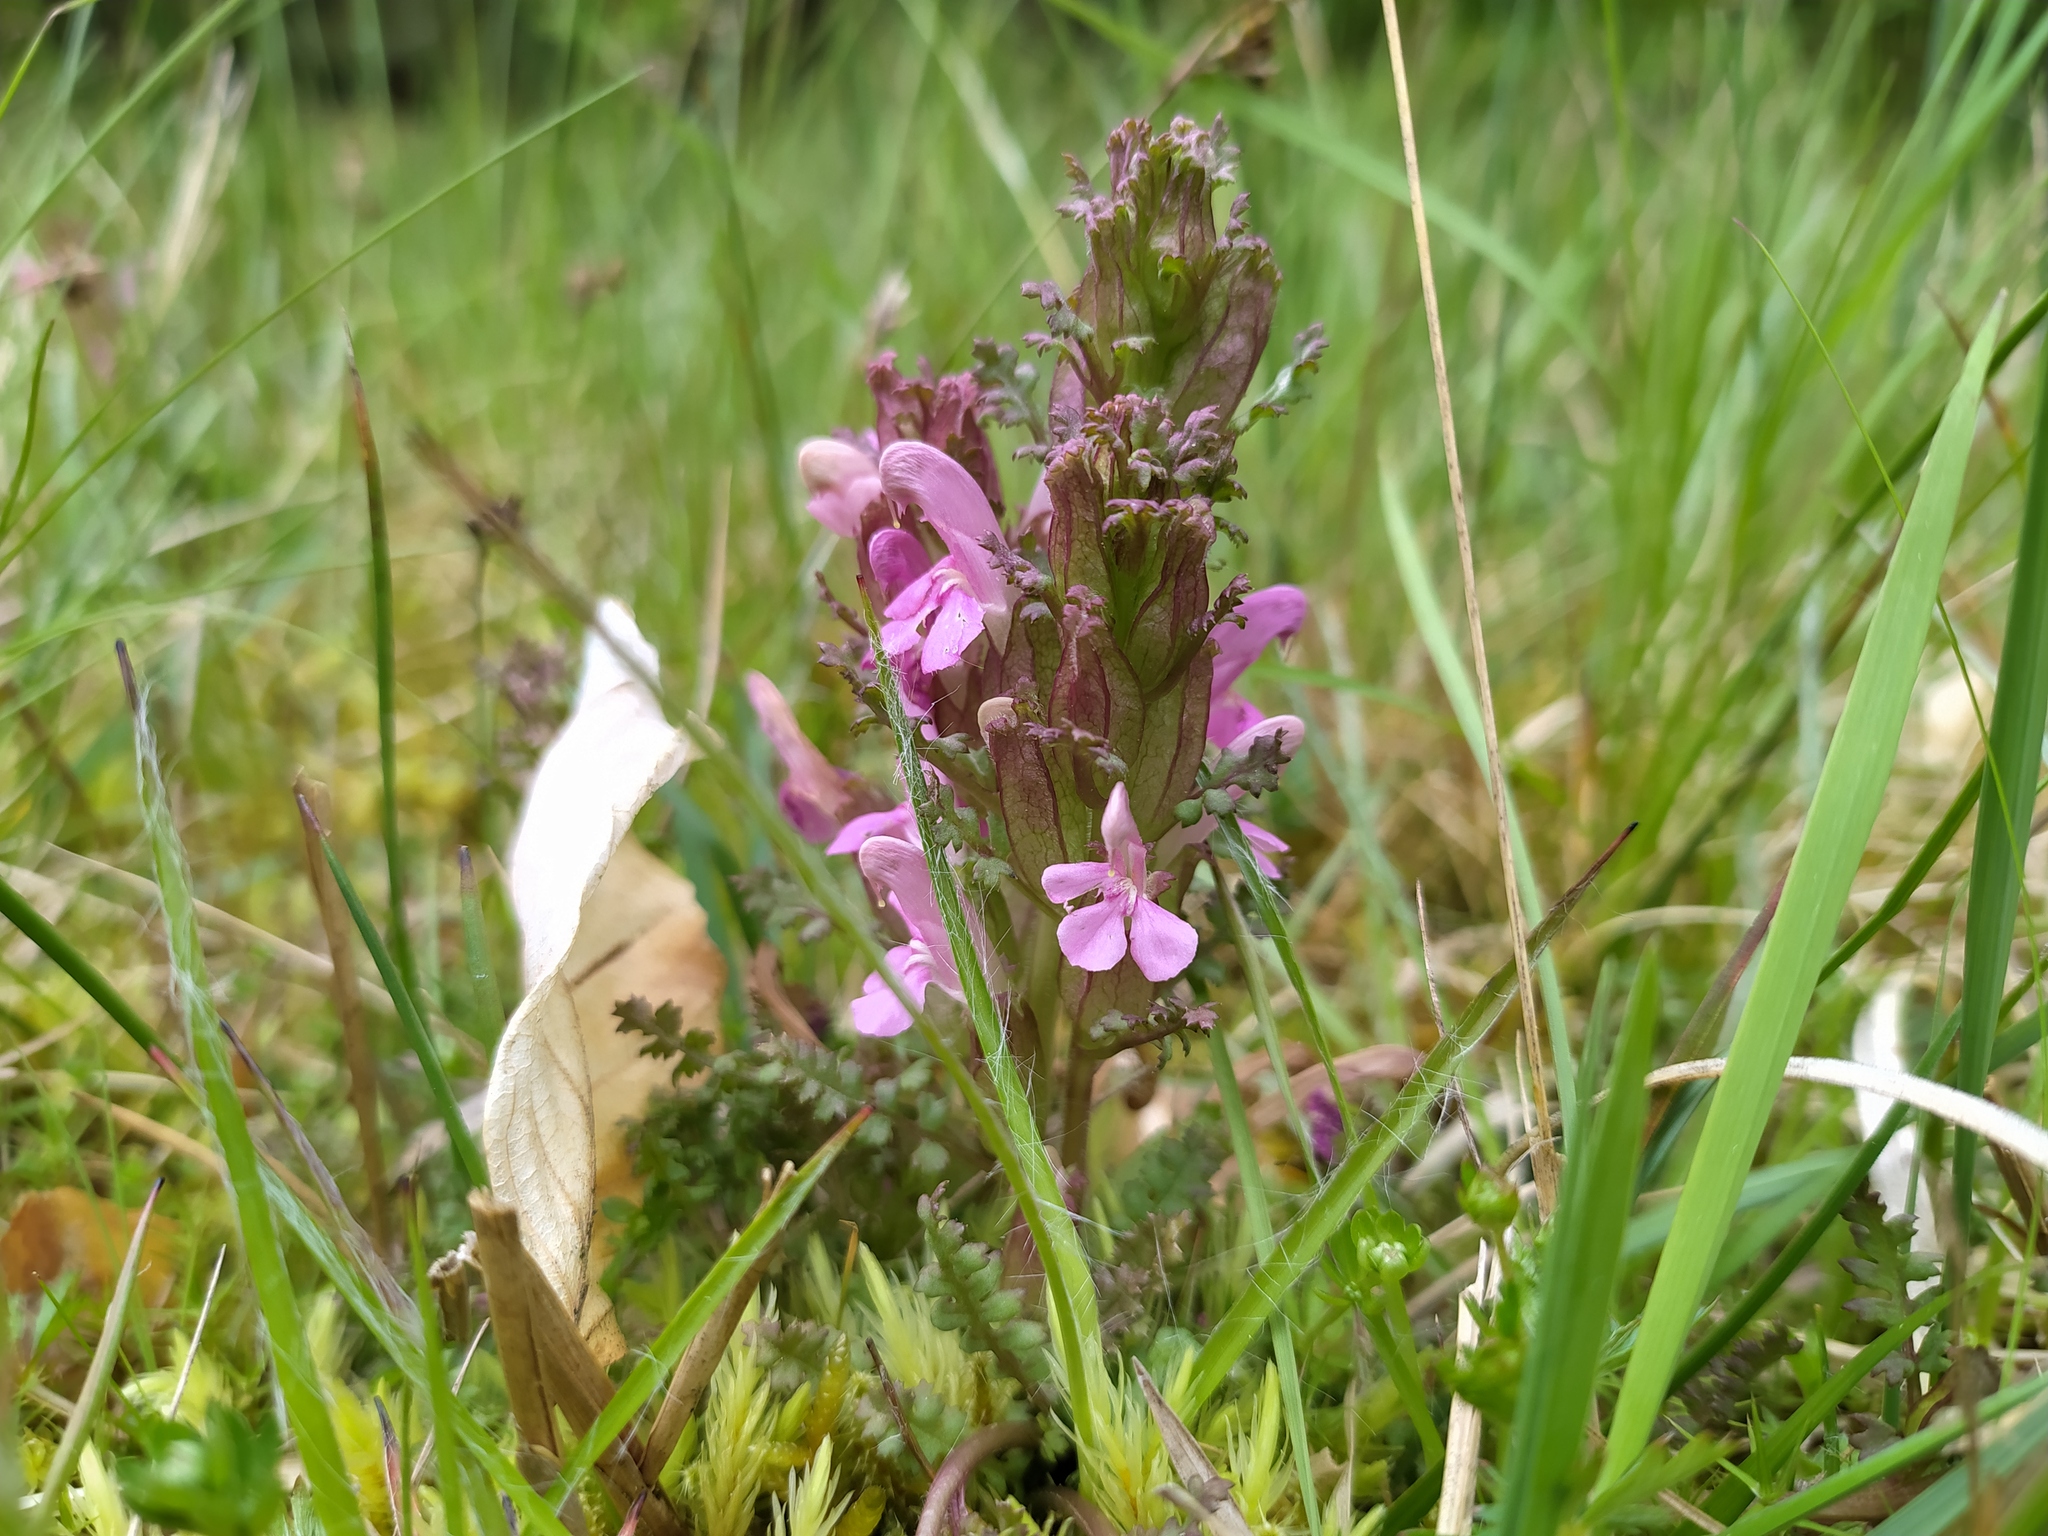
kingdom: Plantae
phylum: Tracheophyta
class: Magnoliopsida
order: Lamiales
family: Orobanchaceae
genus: Pedicularis
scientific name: Pedicularis sylvatica
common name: Lousewort
